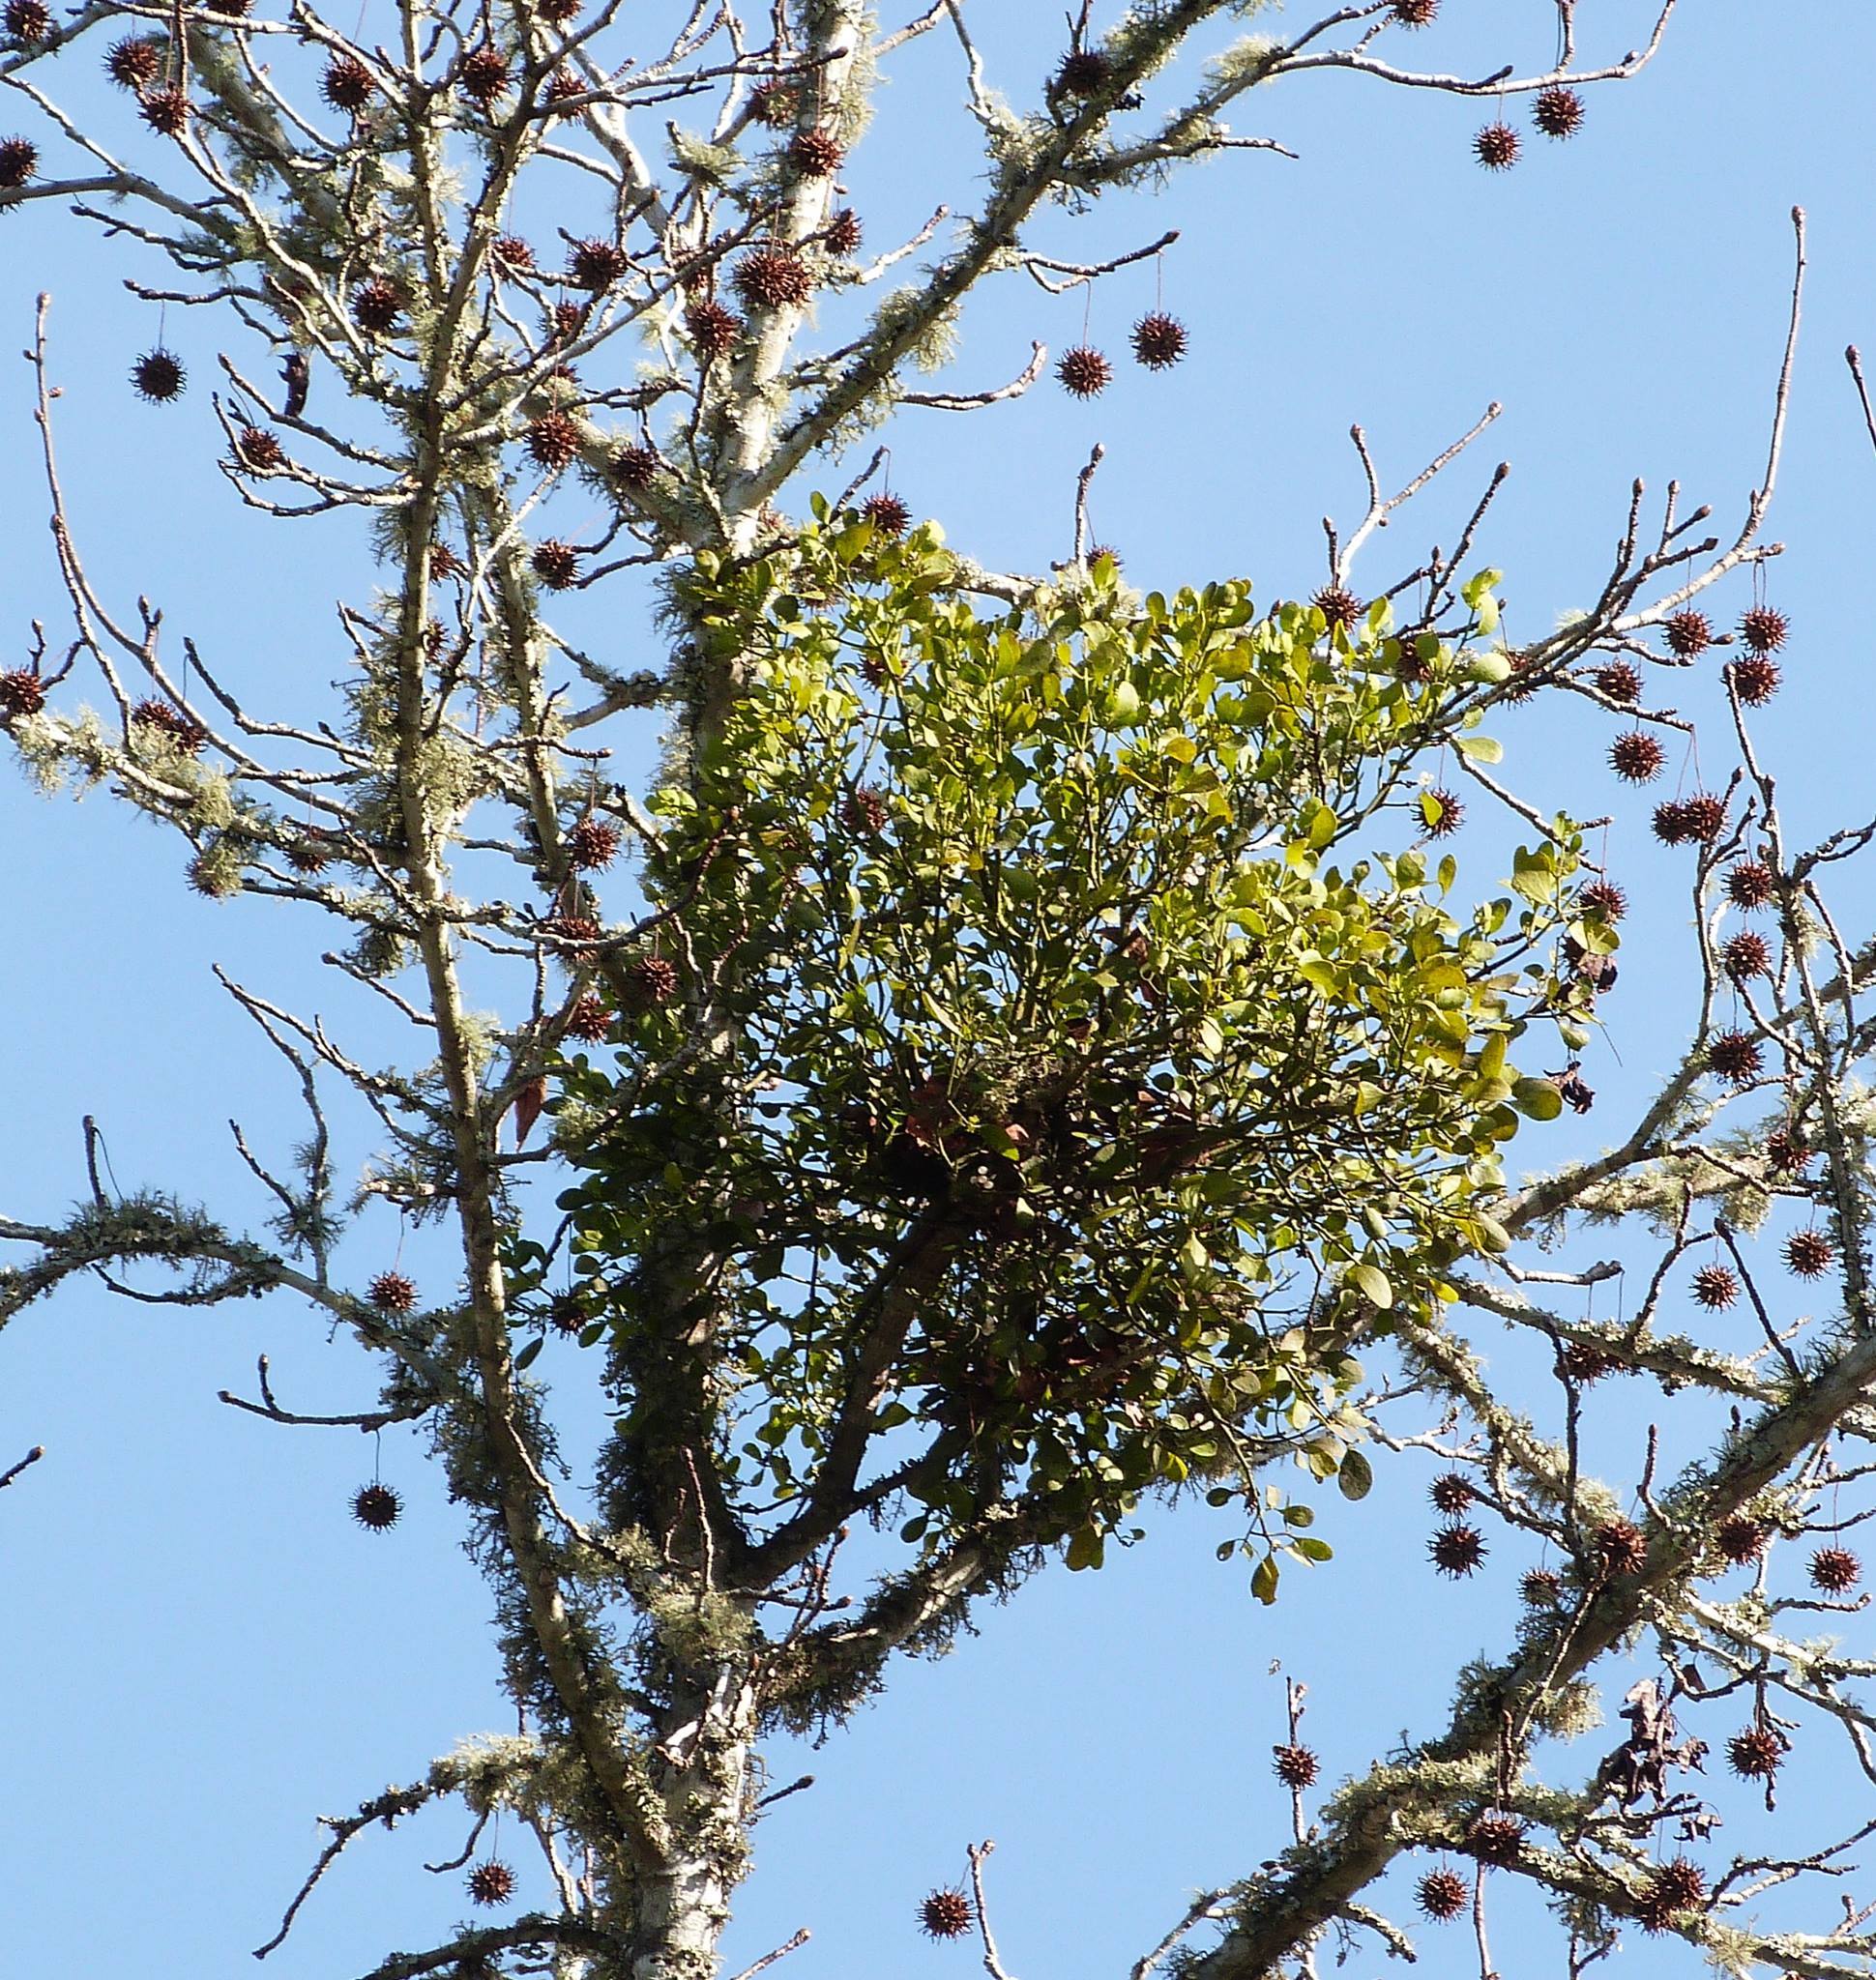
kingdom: Plantae
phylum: Tracheophyta
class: Magnoliopsida
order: Santalales
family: Viscaceae
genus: Phoradendron
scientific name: Phoradendron leucarpum
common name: Pacific mistletoe
